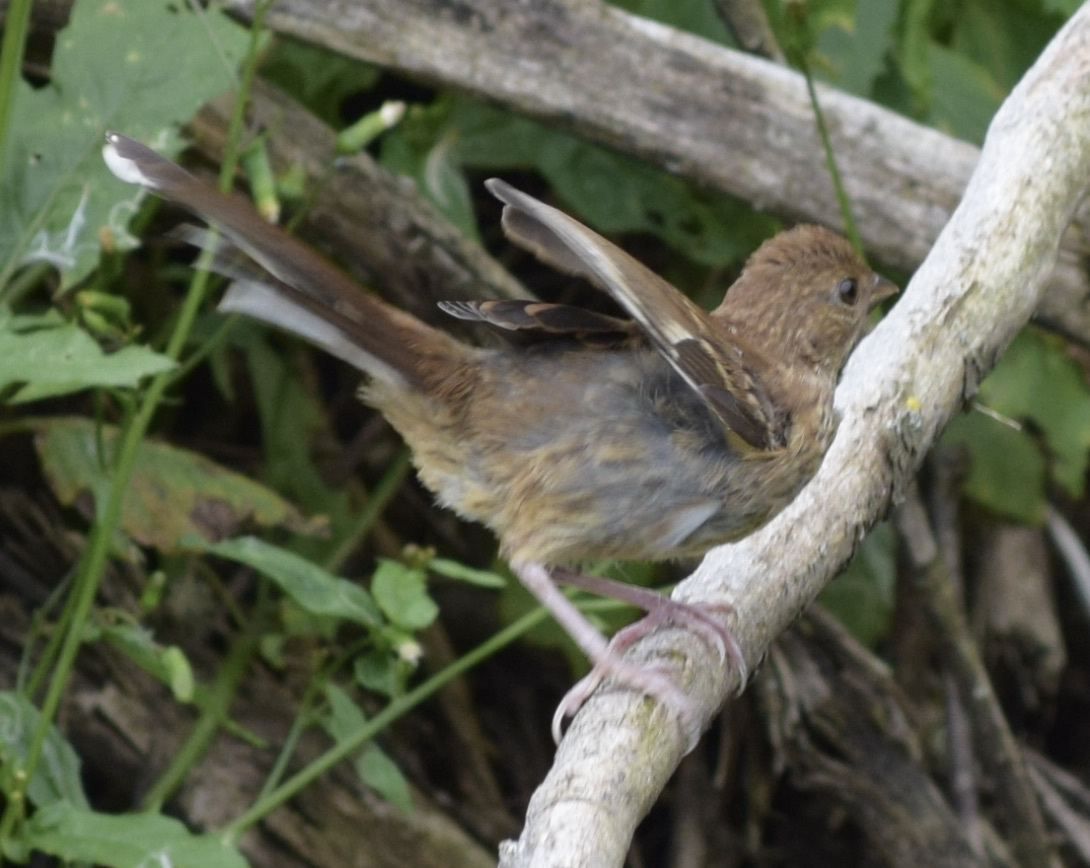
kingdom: Animalia
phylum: Chordata
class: Aves
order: Passeriformes
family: Passerellidae
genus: Pipilo
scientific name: Pipilo erythrophthalmus
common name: Eastern towhee
